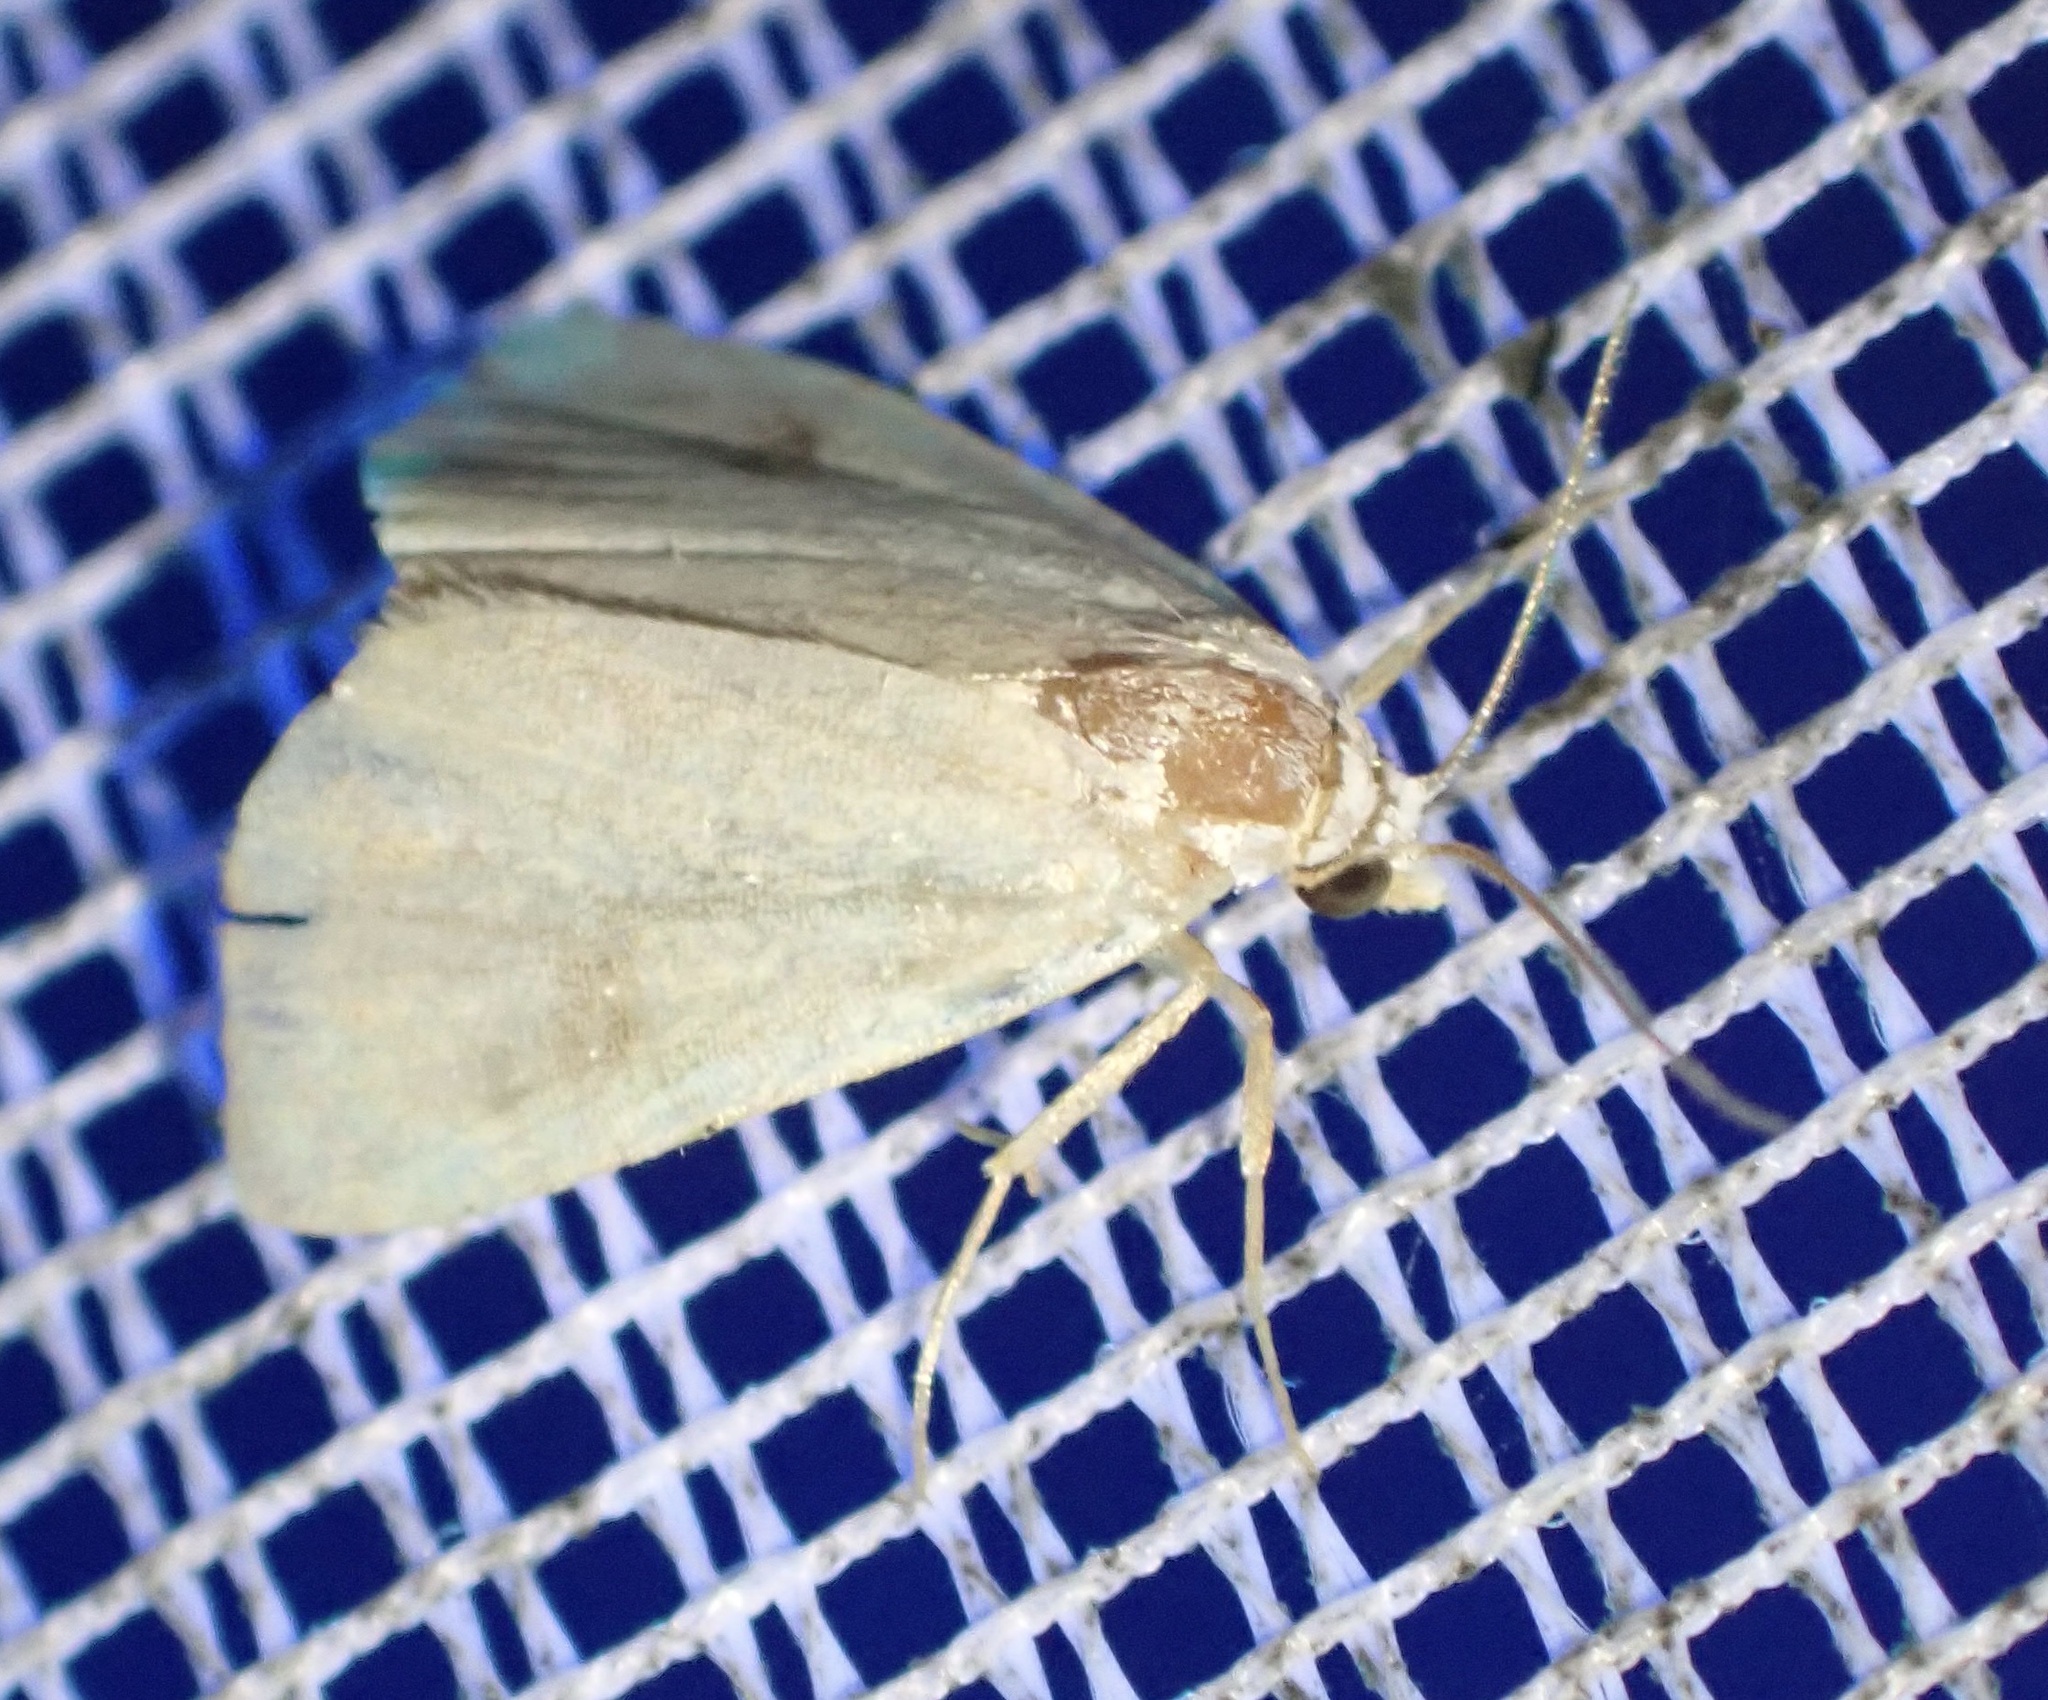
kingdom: Animalia
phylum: Arthropoda
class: Insecta
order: Lepidoptera
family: Erebidae
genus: Rivula
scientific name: Rivula sericealis
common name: Straw dot
